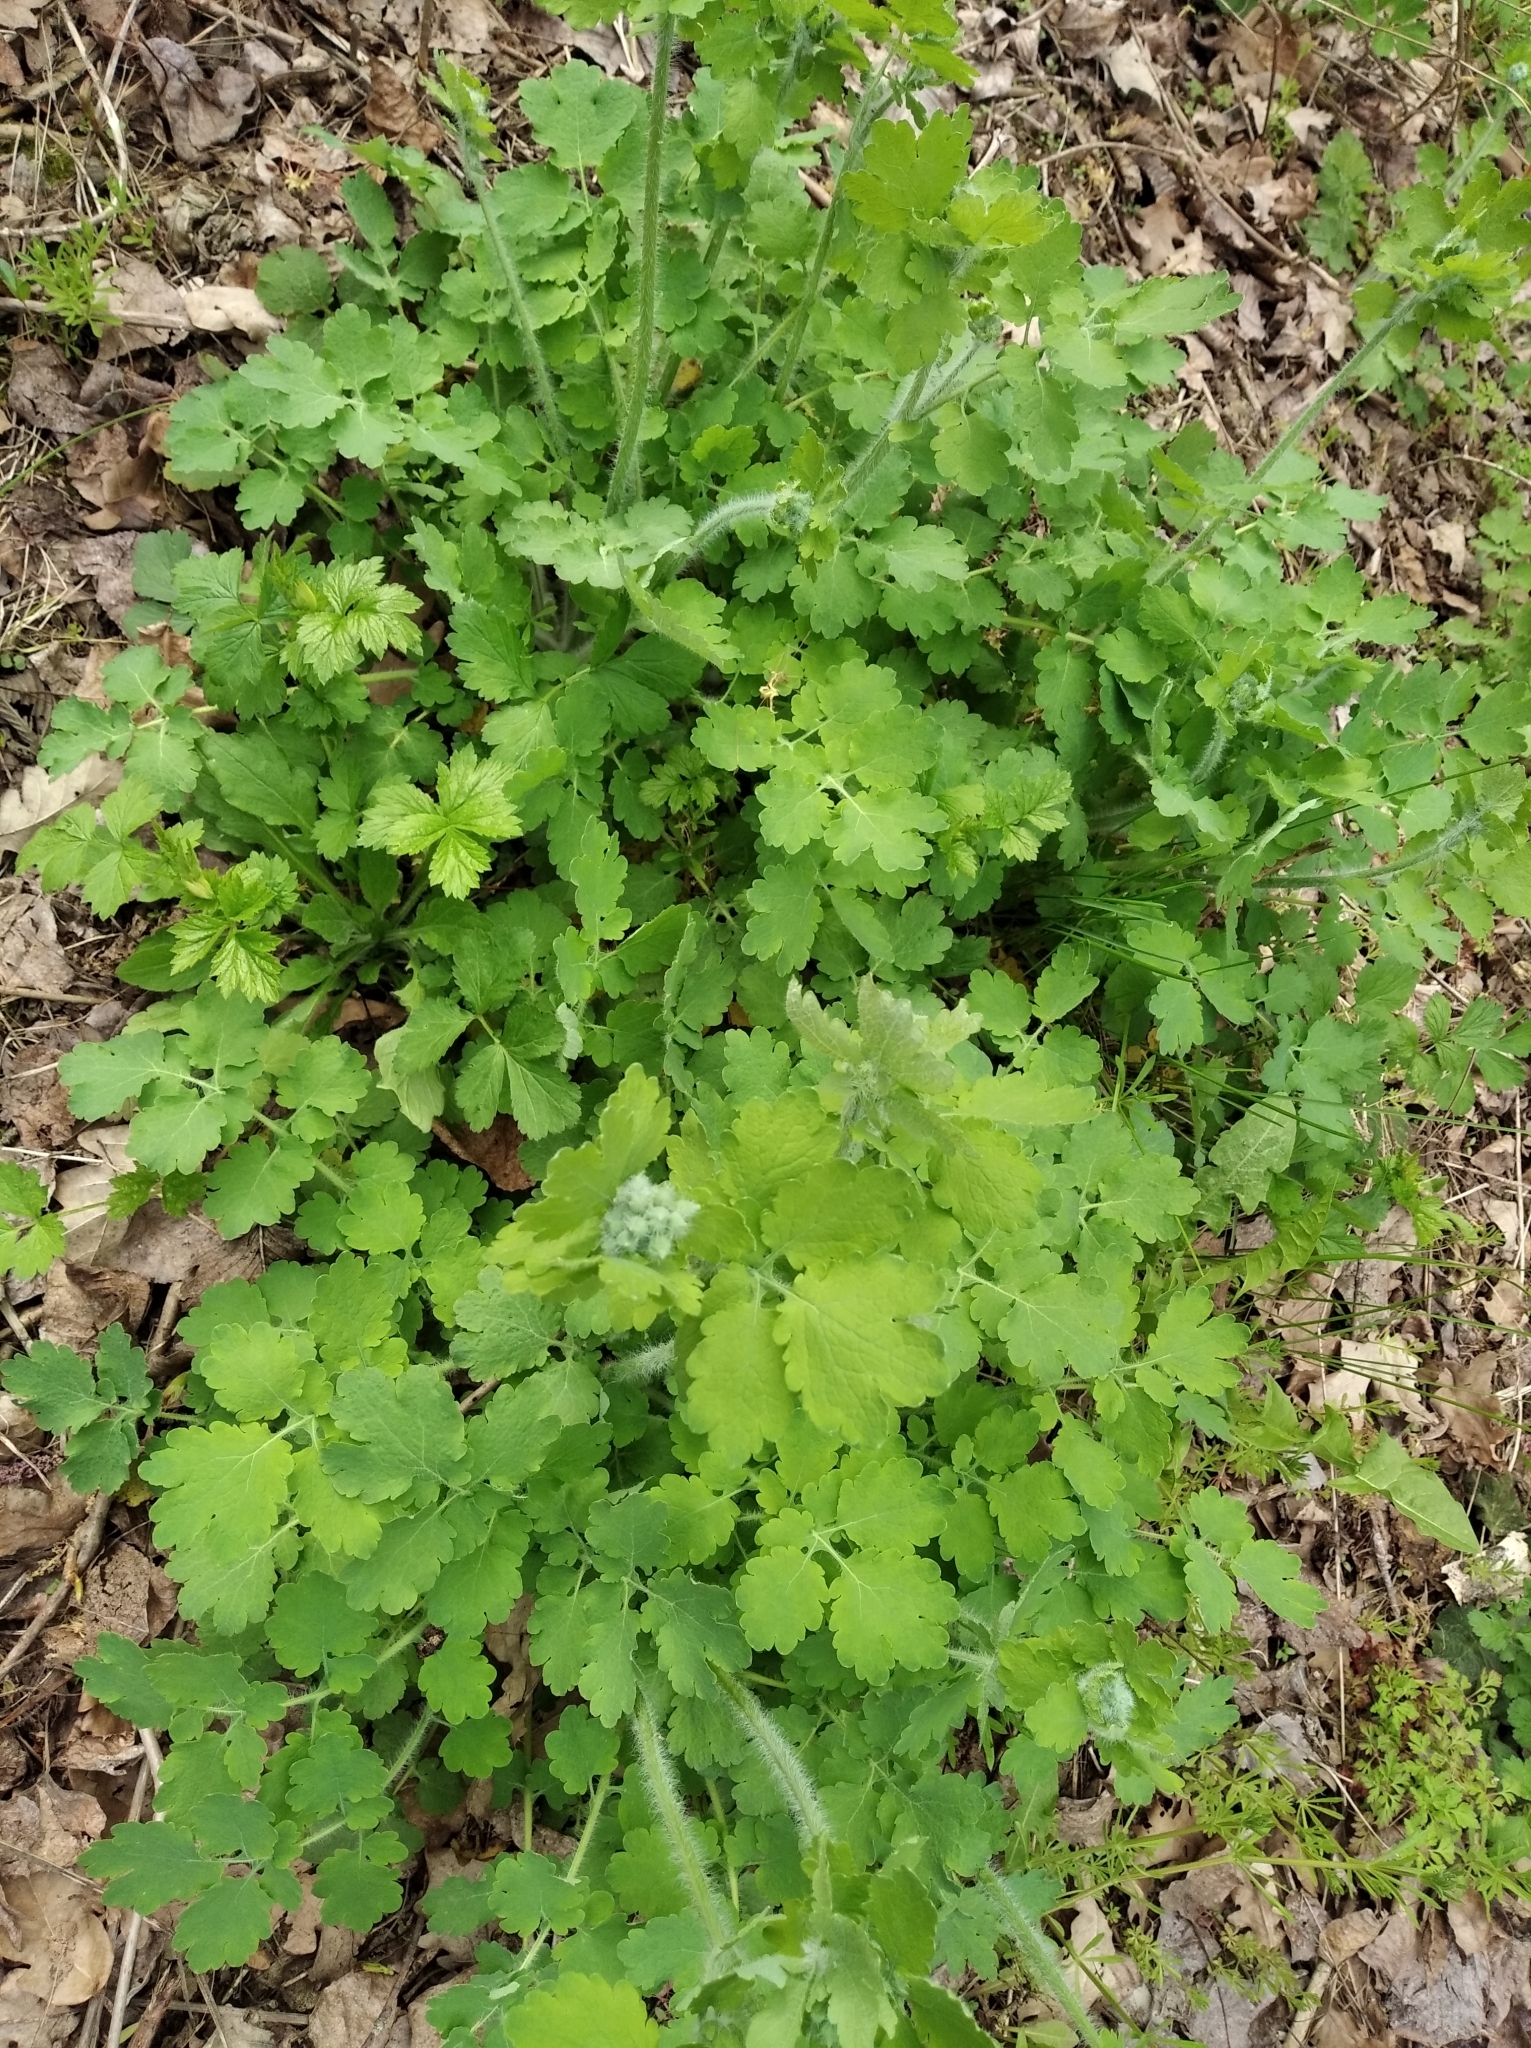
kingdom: Plantae
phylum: Tracheophyta
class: Magnoliopsida
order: Ranunculales
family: Papaveraceae
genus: Chelidonium
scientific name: Chelidonium majus
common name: Greater celandine
